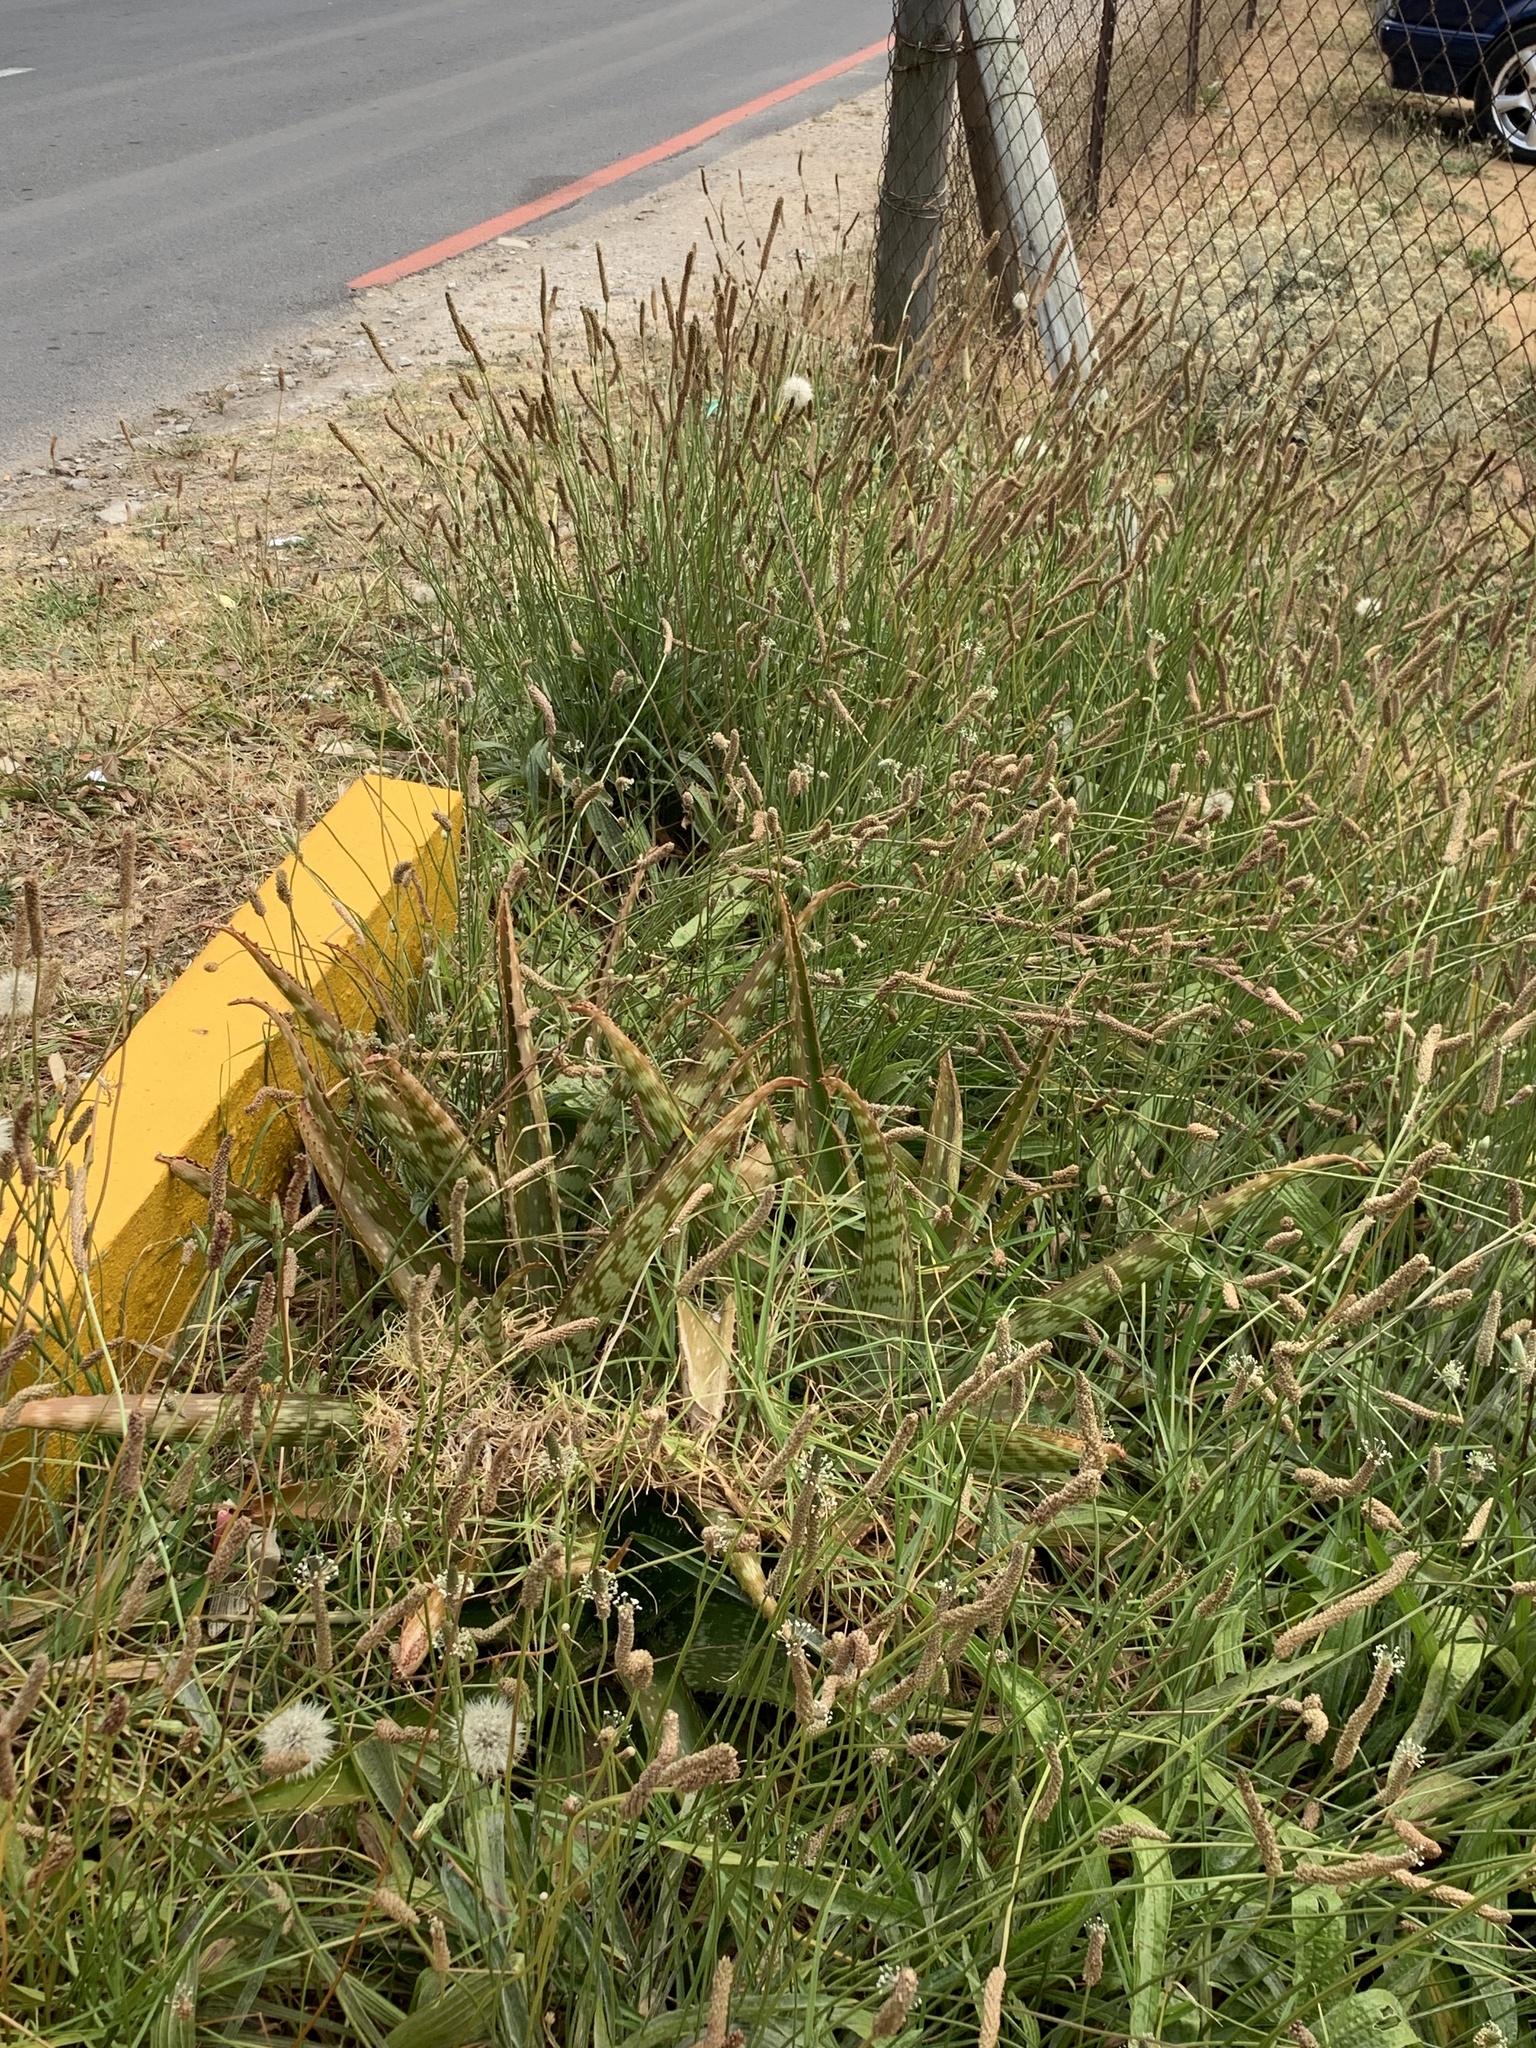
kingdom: Plantae
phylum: Tracheophyta
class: Magnoliopsida
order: Lamiales
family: Plantaginaceae
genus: Plantago
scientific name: Plantago lanceolata
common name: Ribwort plantain
